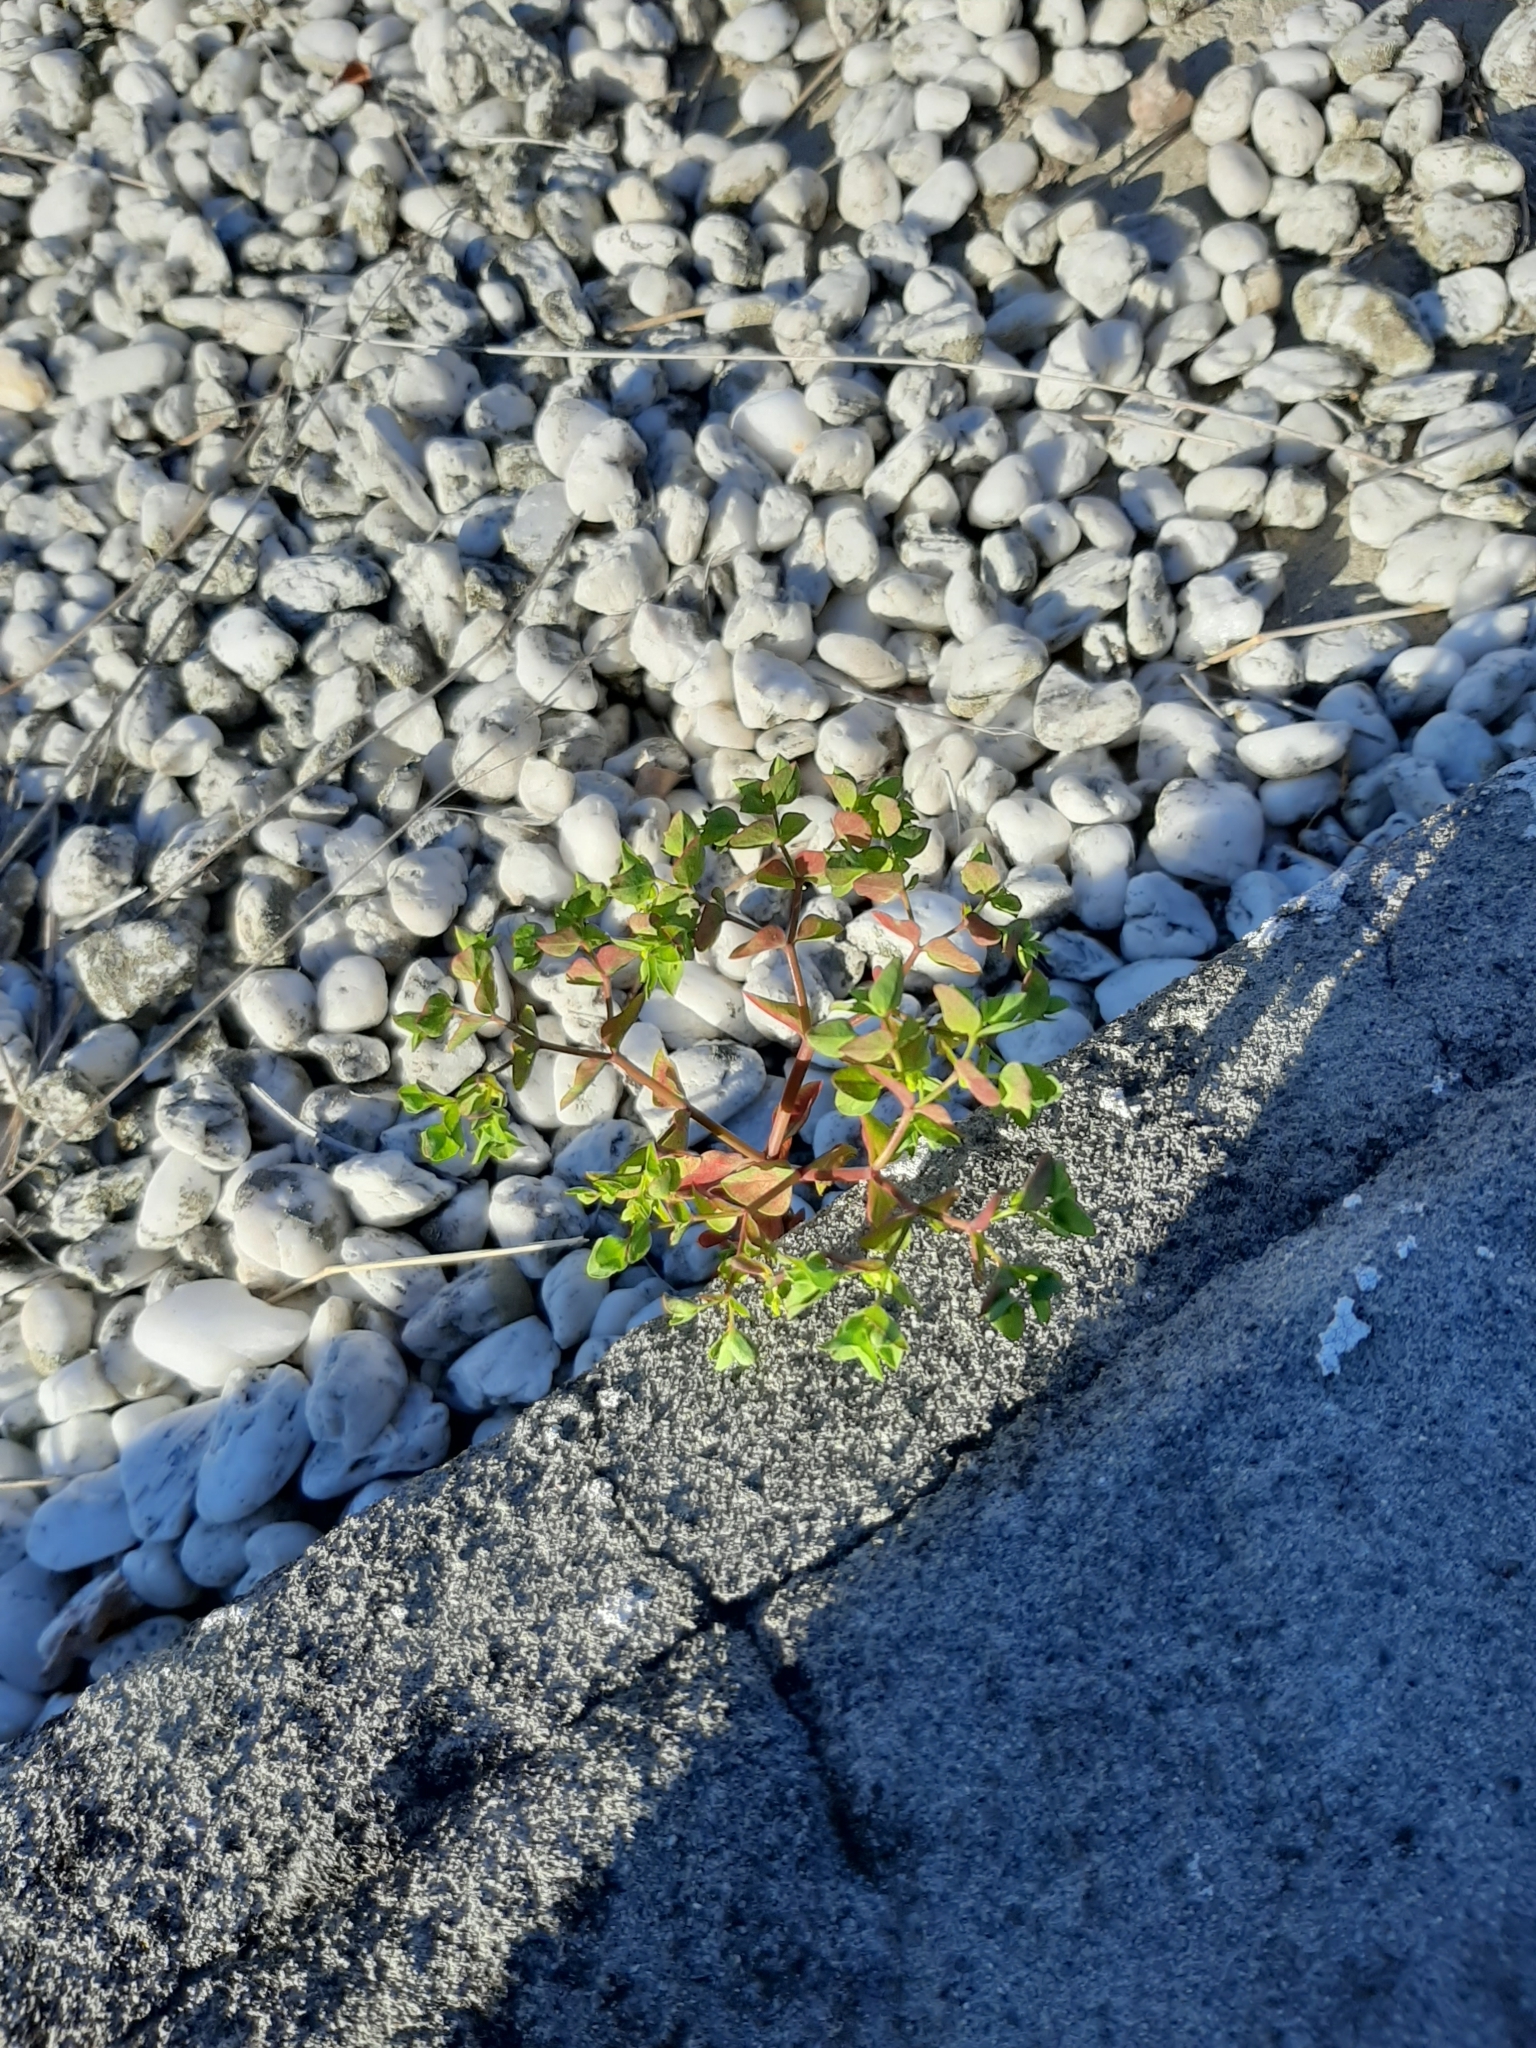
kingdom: Plantae
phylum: Tracheophyta
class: Magnoliopsida
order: Malpighiales
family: Euphorbiaceae
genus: Euphorbia
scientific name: Euphorbia peplus
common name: Petty spurge
